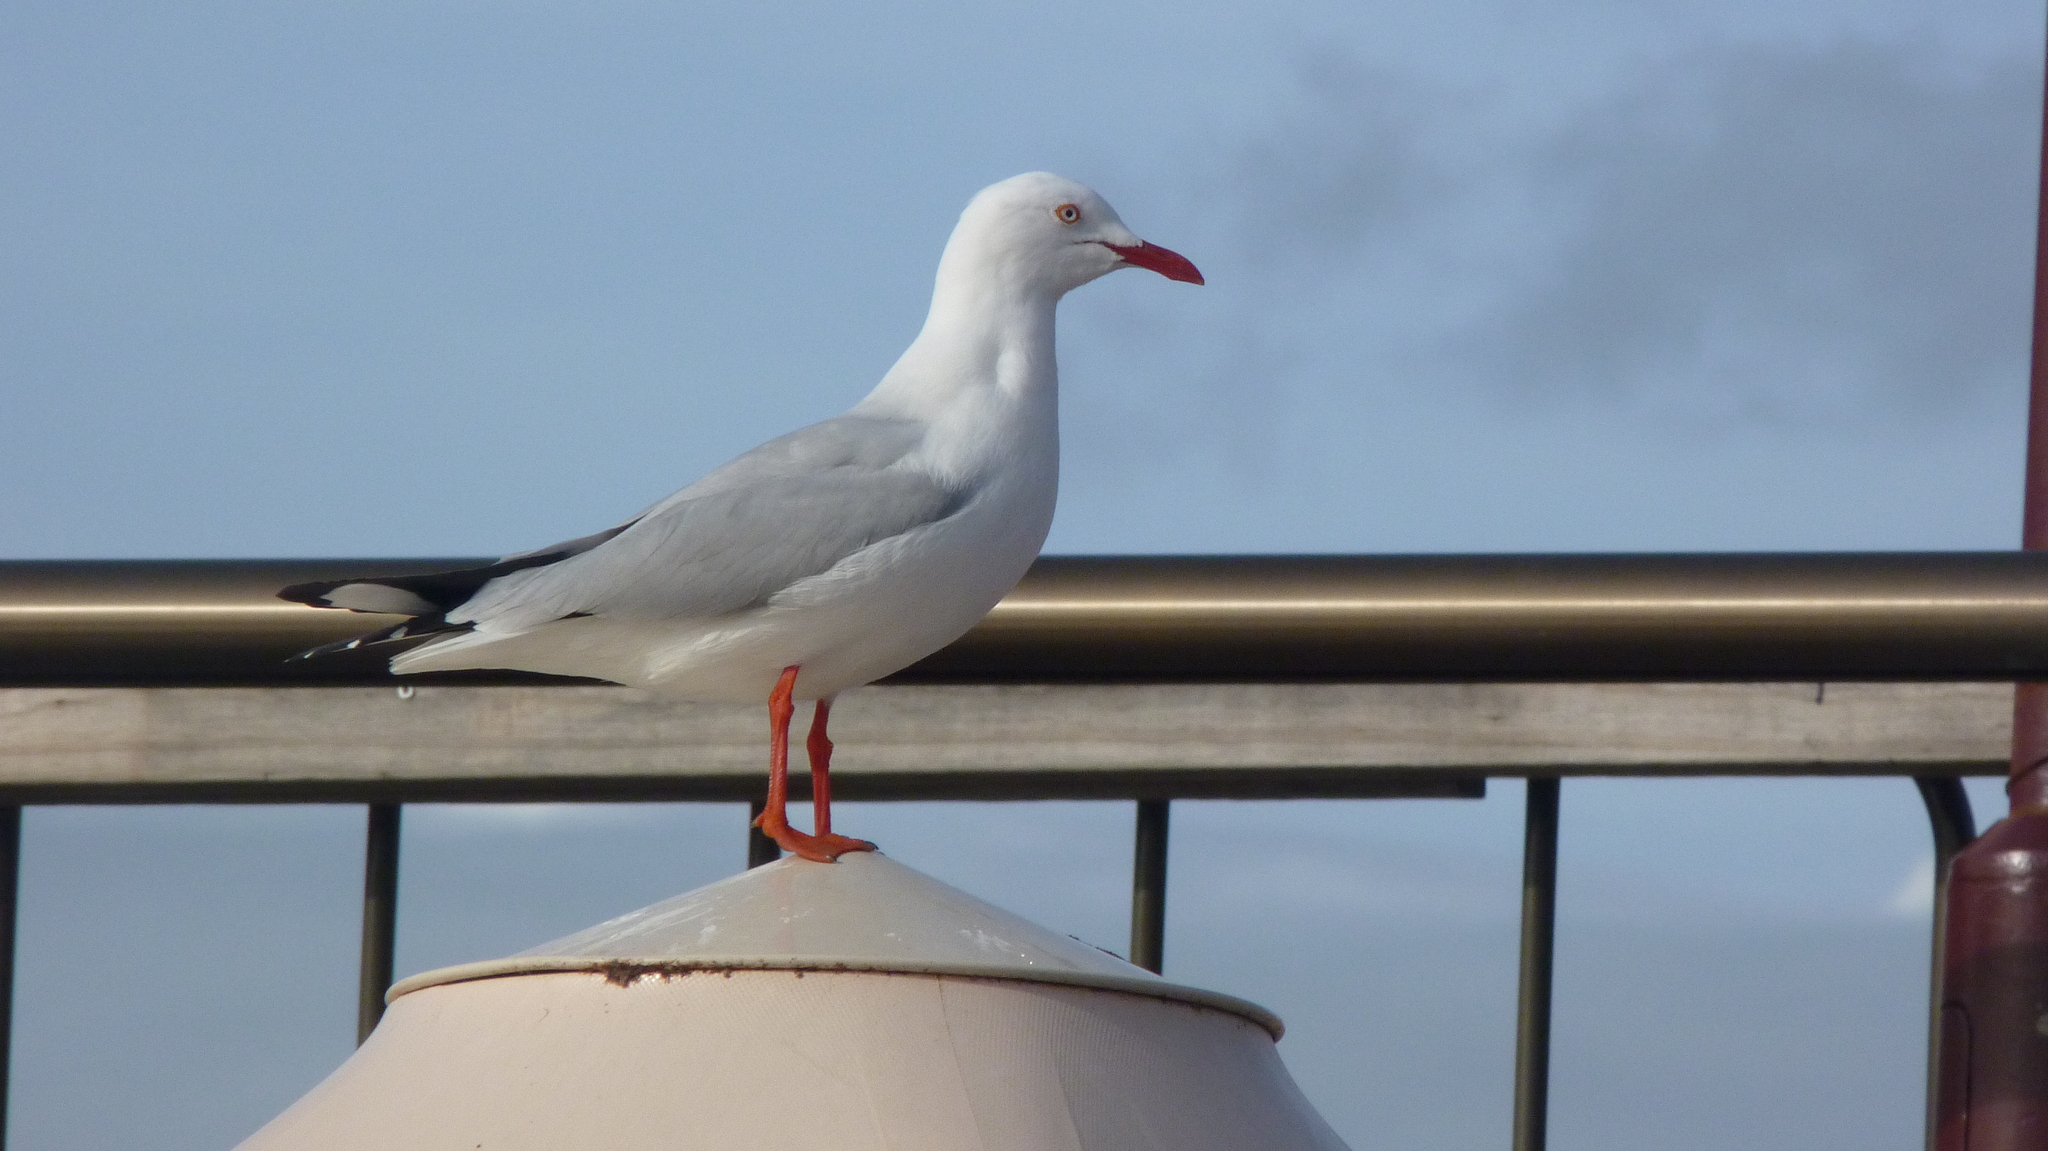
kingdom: Animalia
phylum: Chordata
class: Aves
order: Charadriiformes
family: Laridae
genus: Chroicocephalus
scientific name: Chroicocephalus novaehollandiae
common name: Silver gull
